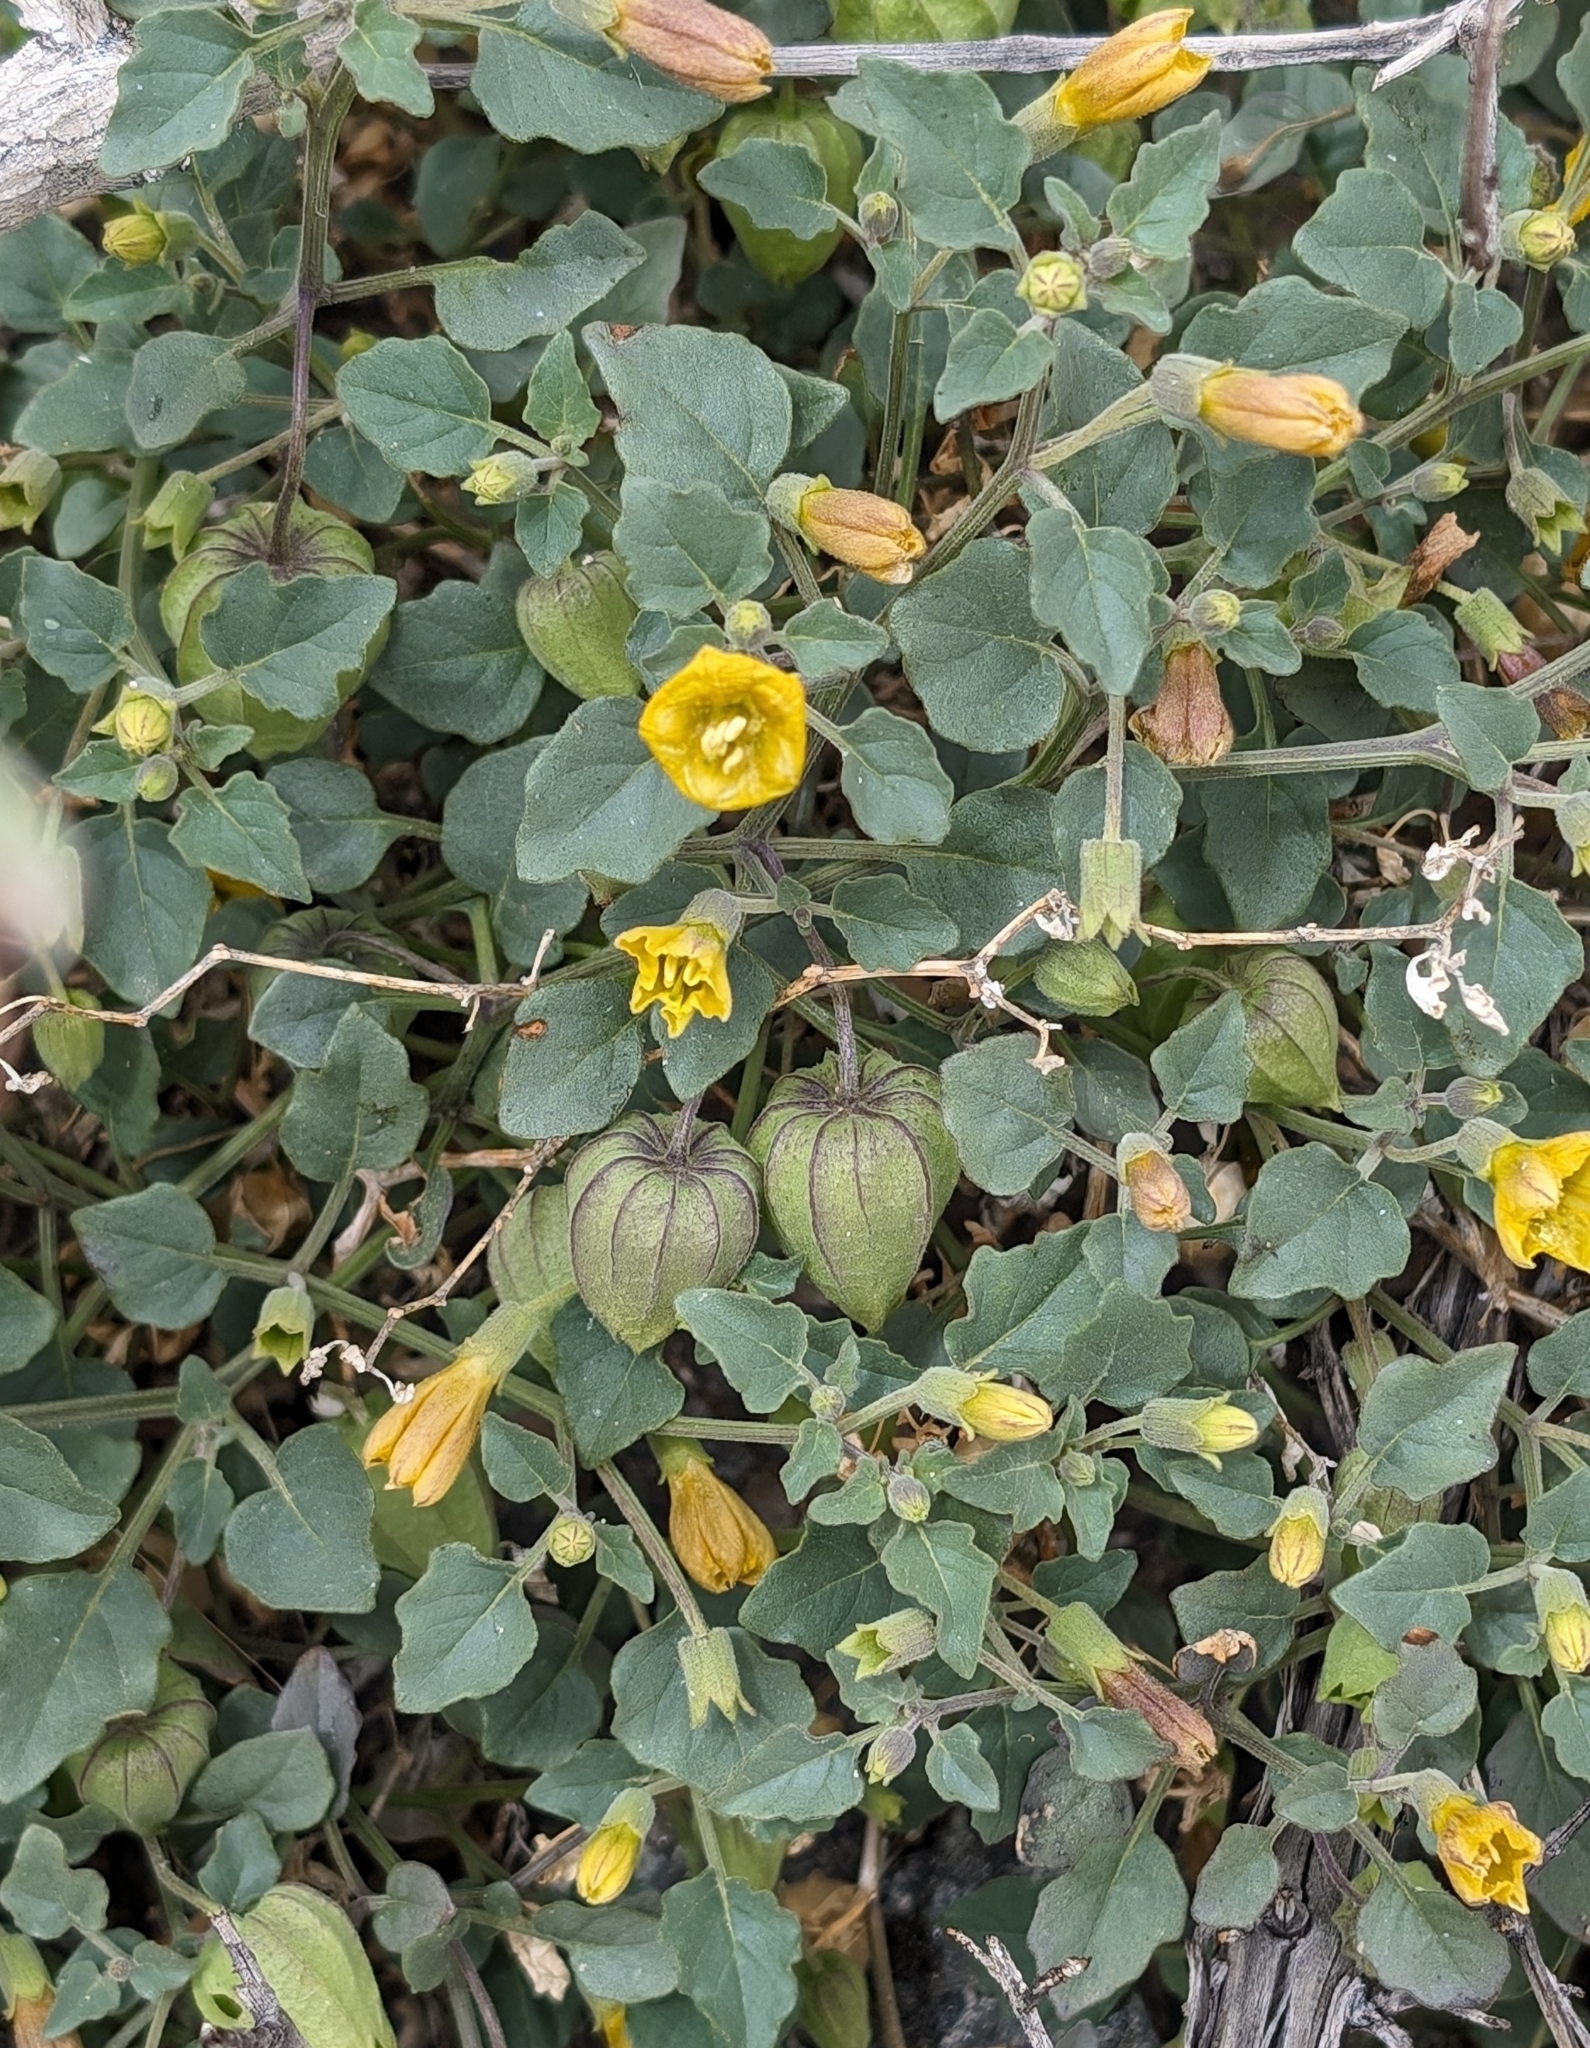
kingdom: Plantae
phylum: Tracheophyta
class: Magnoliopsida
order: Solanales
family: Solanaceae
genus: Physalis
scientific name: Physalis crassifolia
